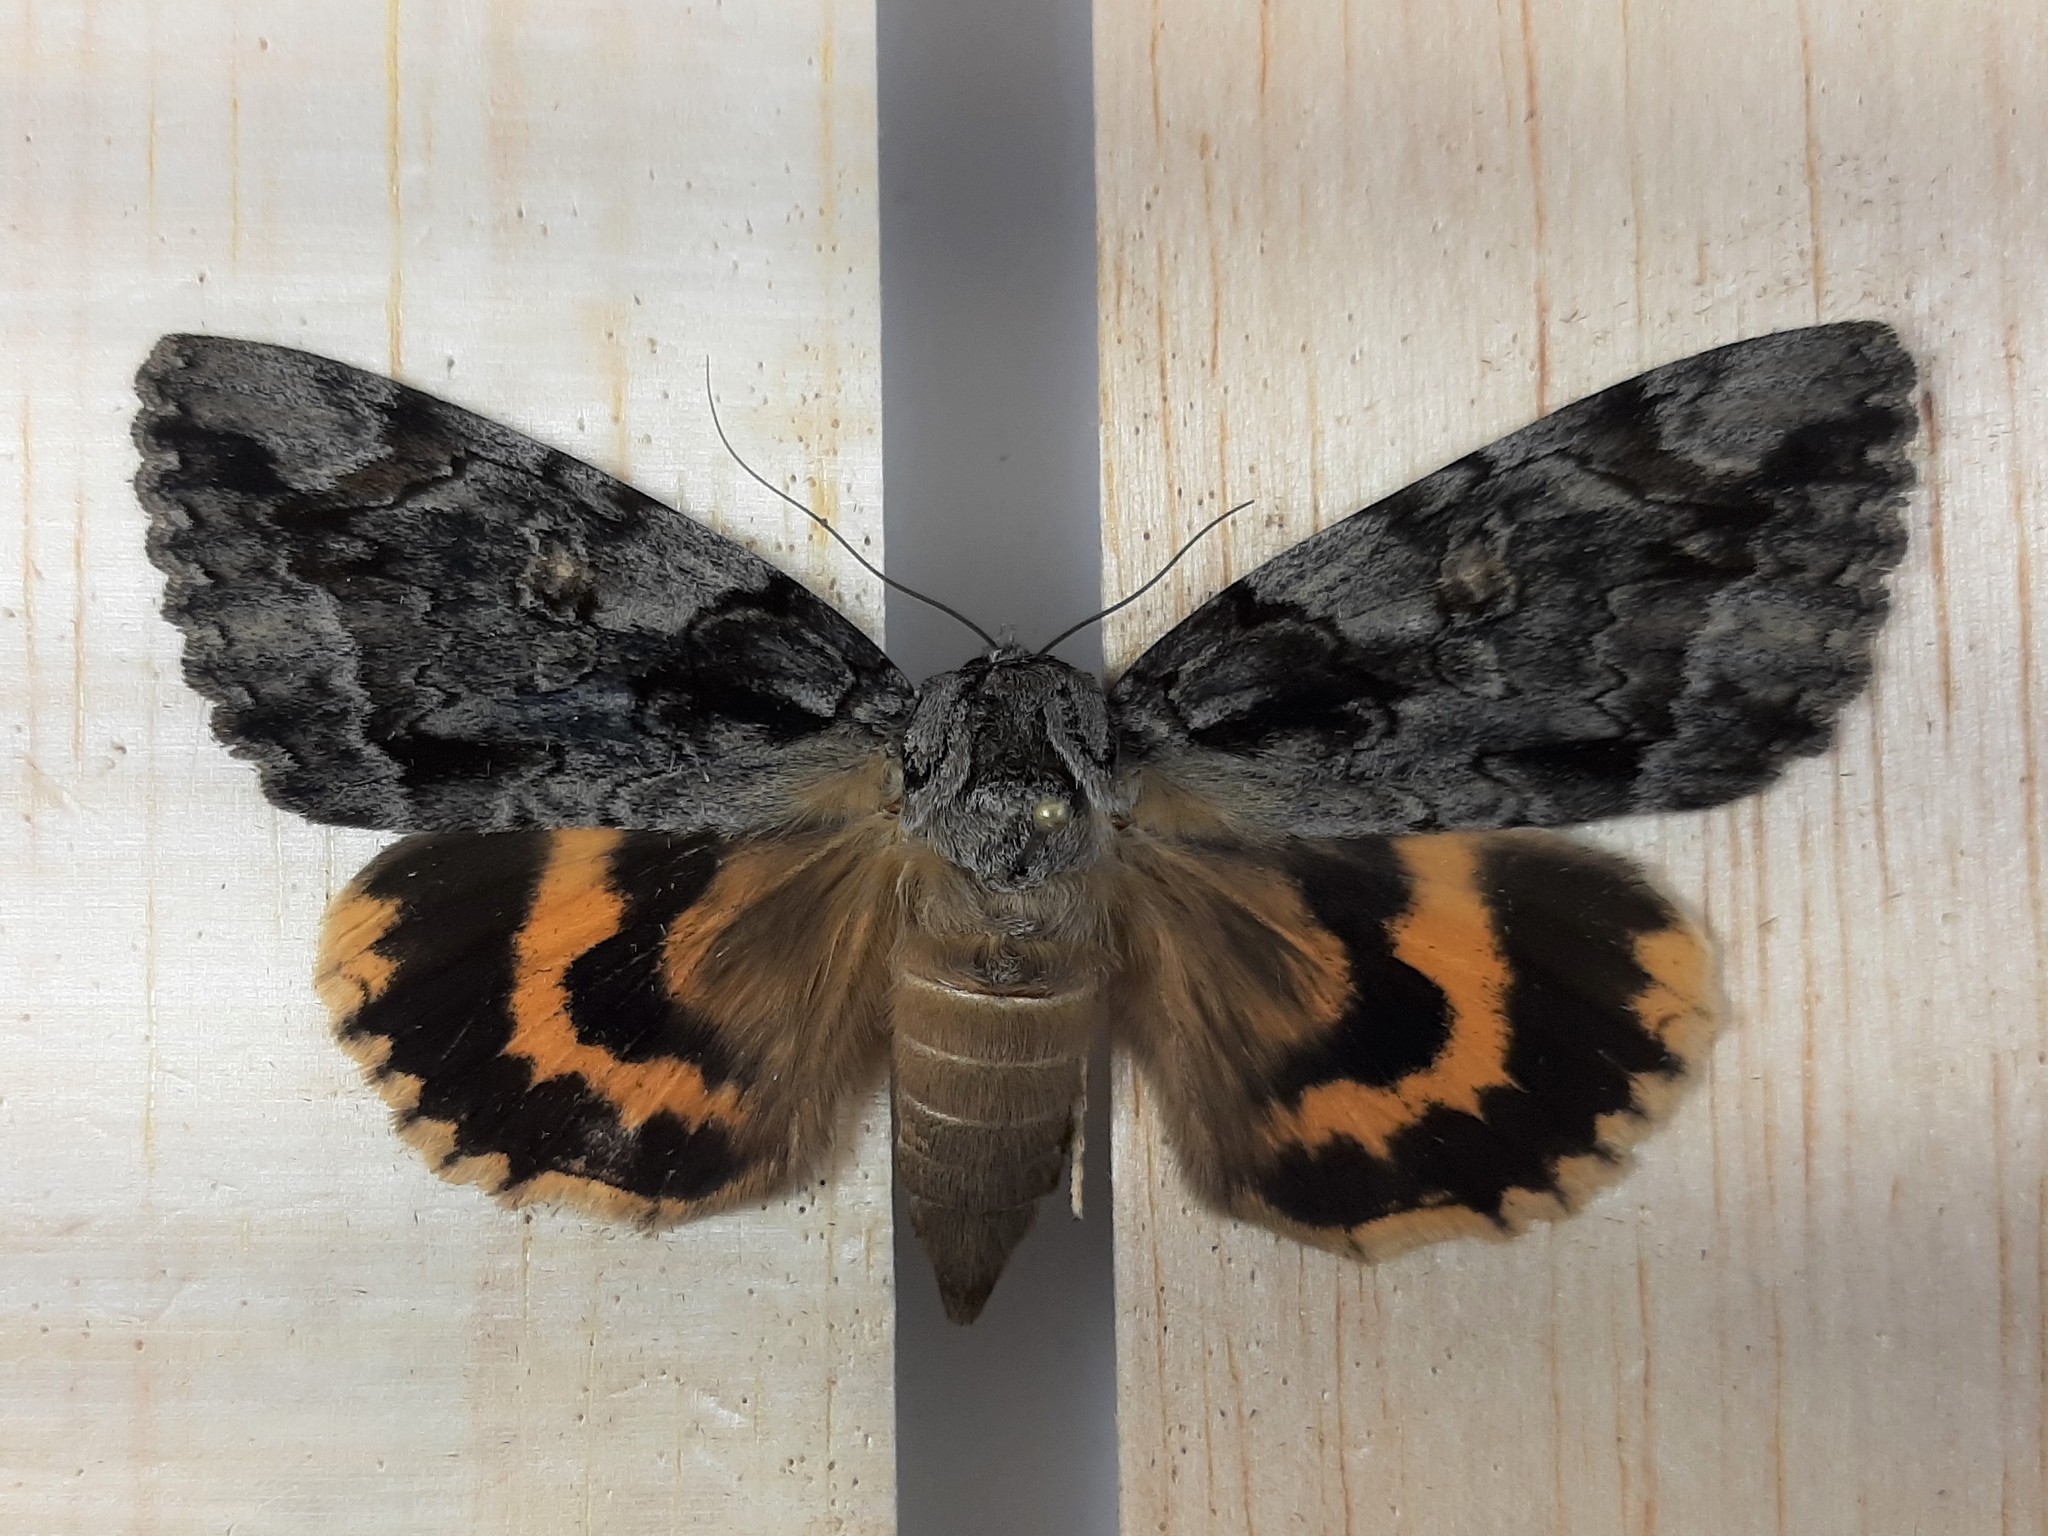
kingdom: Animalia
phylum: Arthropoda
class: Insecta
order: Lepidoptera
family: Erebidae
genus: Catocala
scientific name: Catocala neogama
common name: Bride underwing
